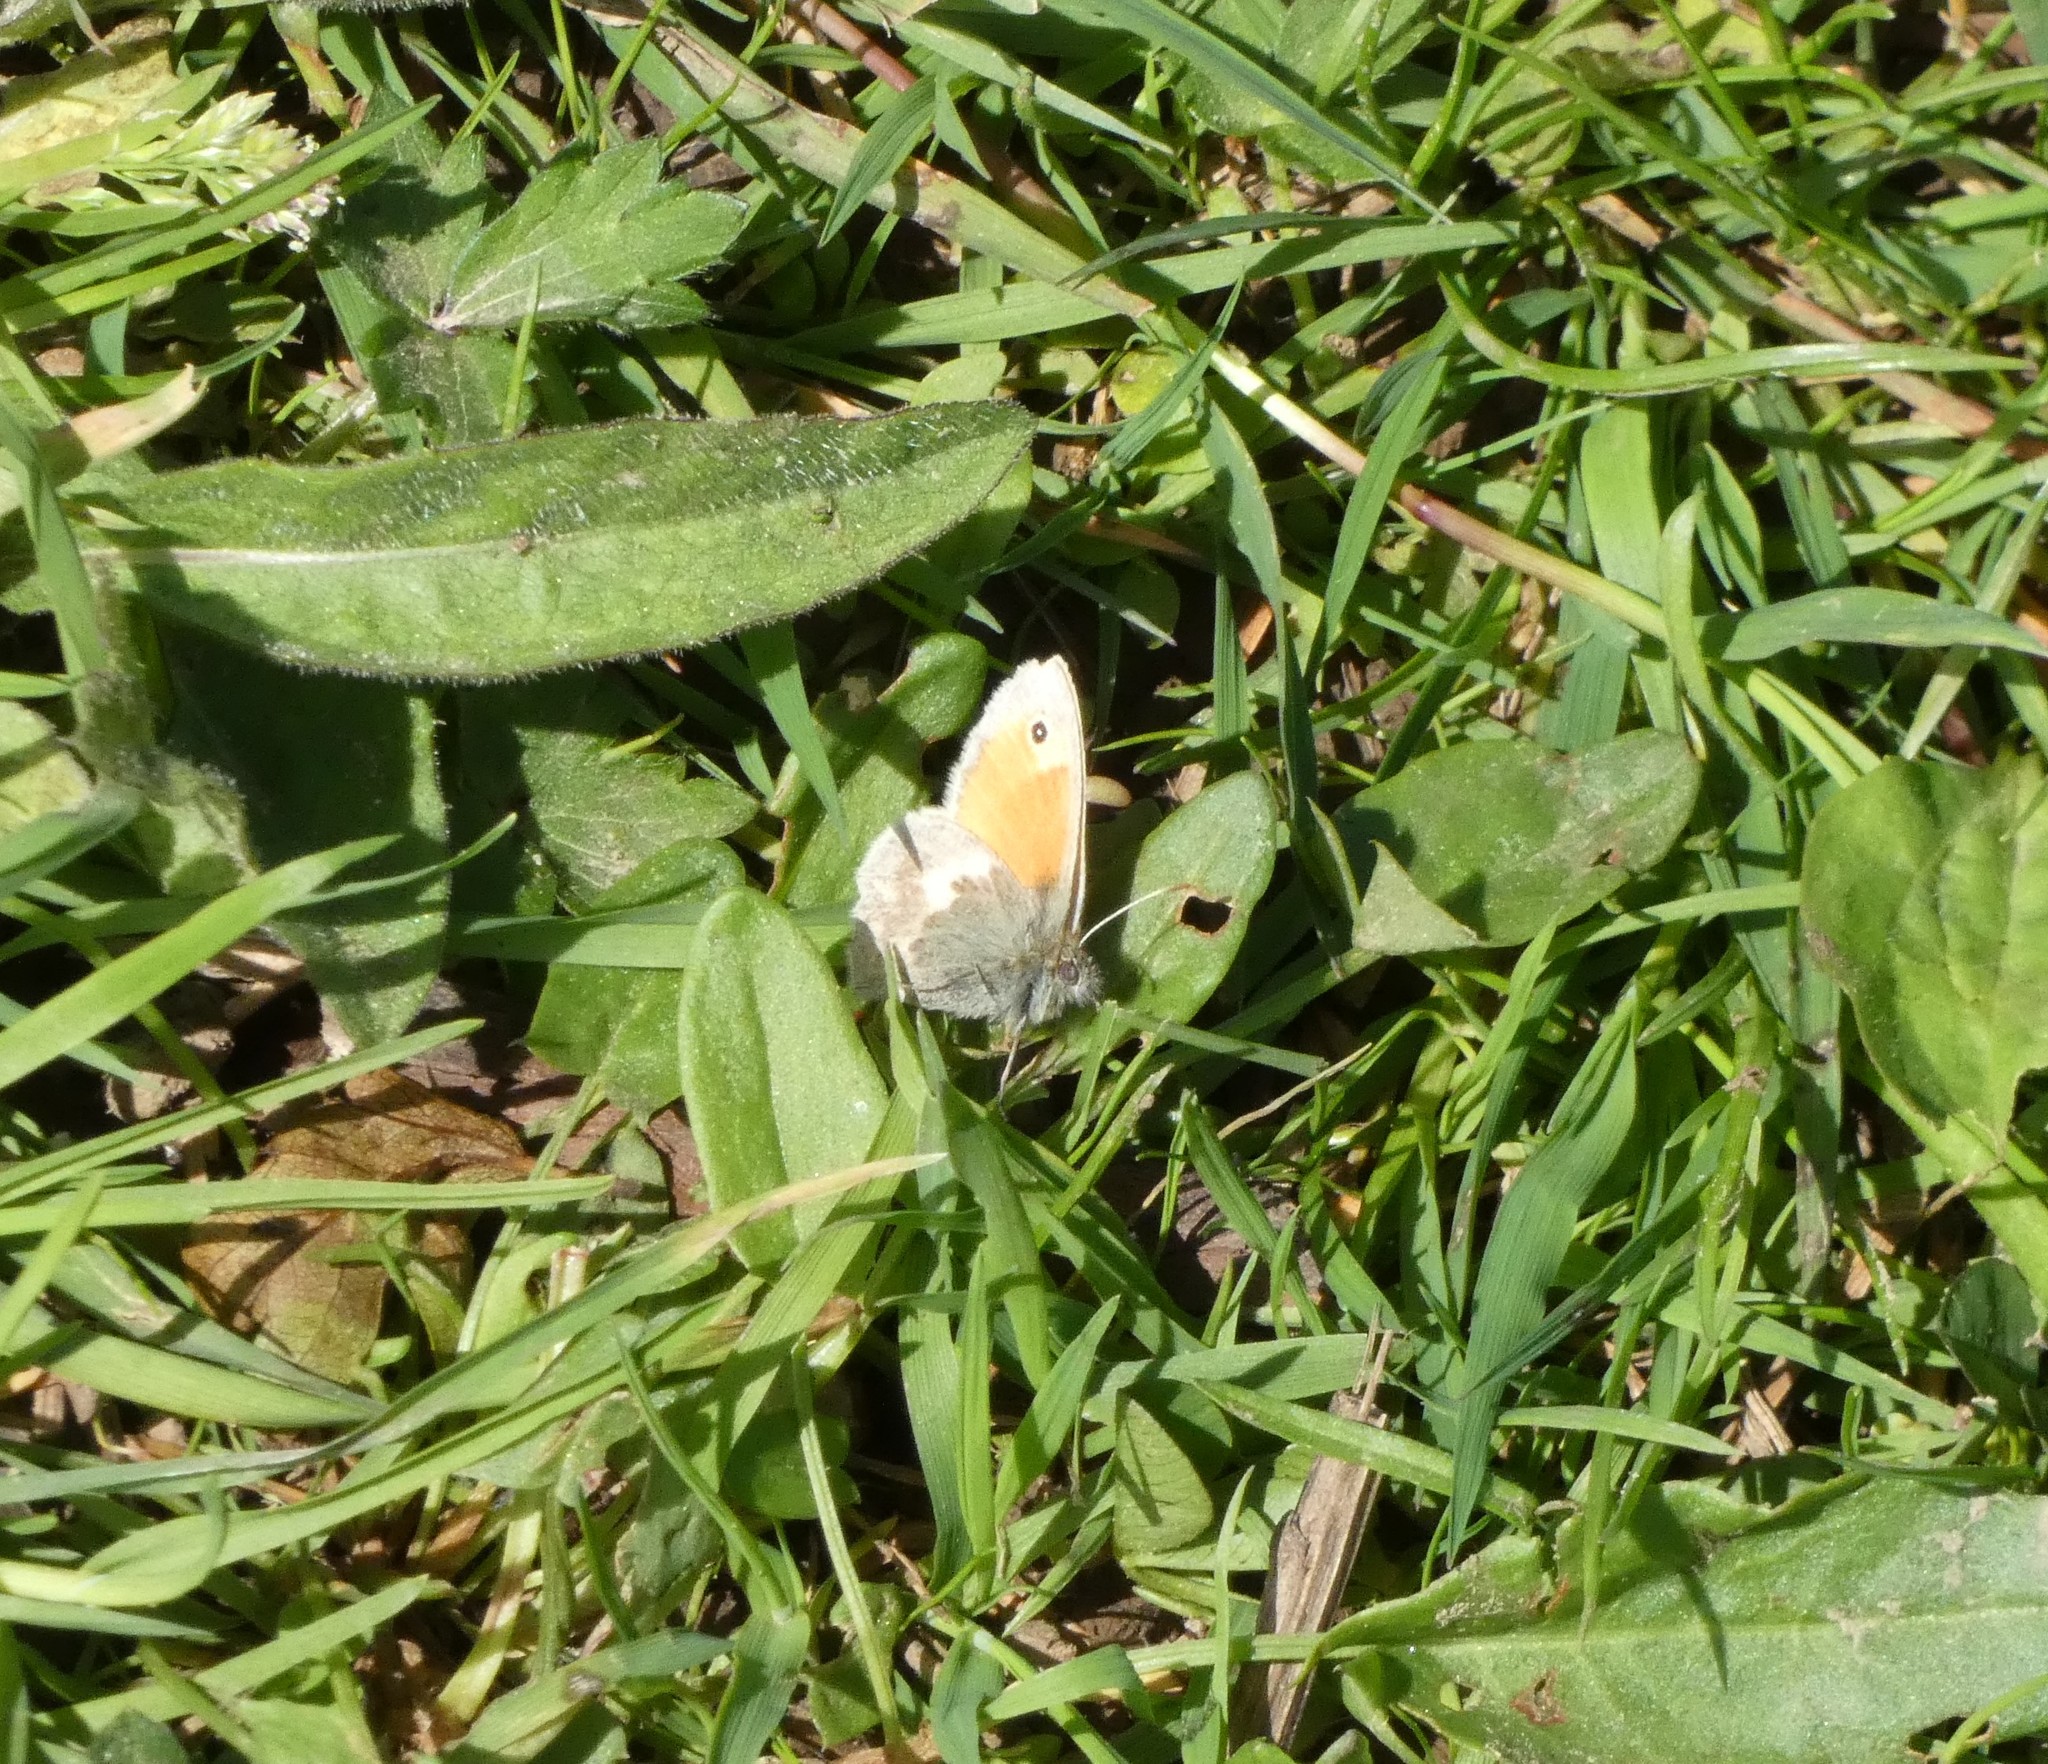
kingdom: Animalia
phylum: Arthropoda
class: Insecta
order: Lepidoptera
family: Nymphalidae
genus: Coenonympha
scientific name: Coenonympha pamphilus
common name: Small heath
